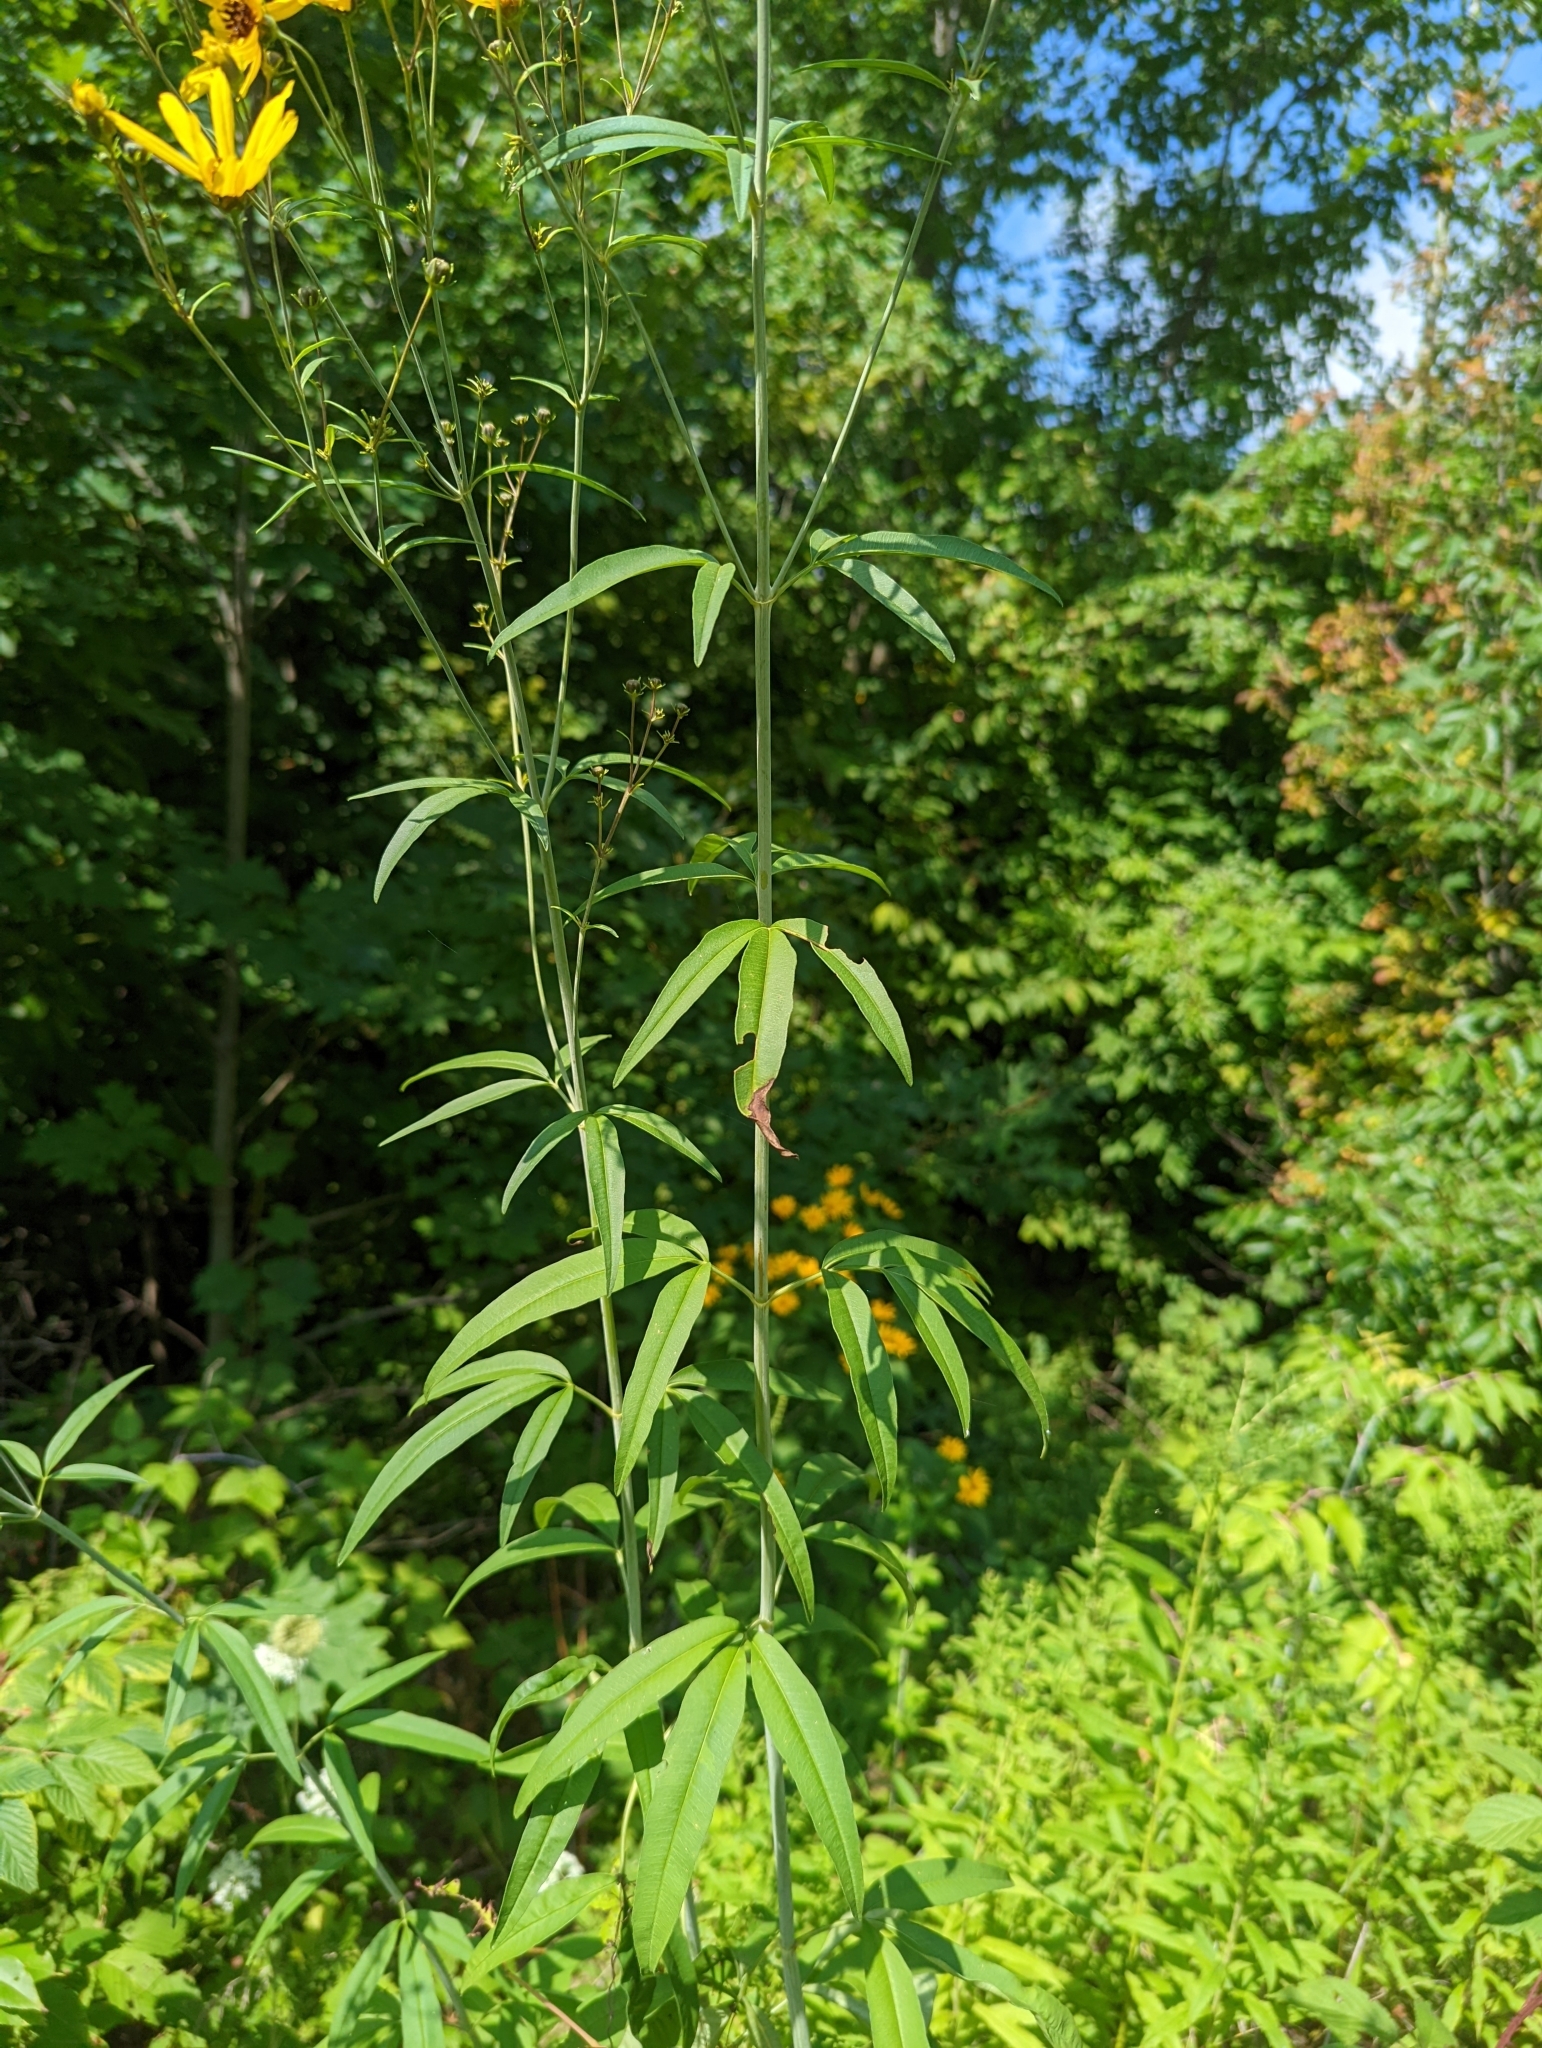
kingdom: Plantae
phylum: Tracheophyta
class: Magnoliopsida
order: Asterales
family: Asteraceae
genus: Coreopsis
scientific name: Coreopsis tripteris
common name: Tall coreopsis
